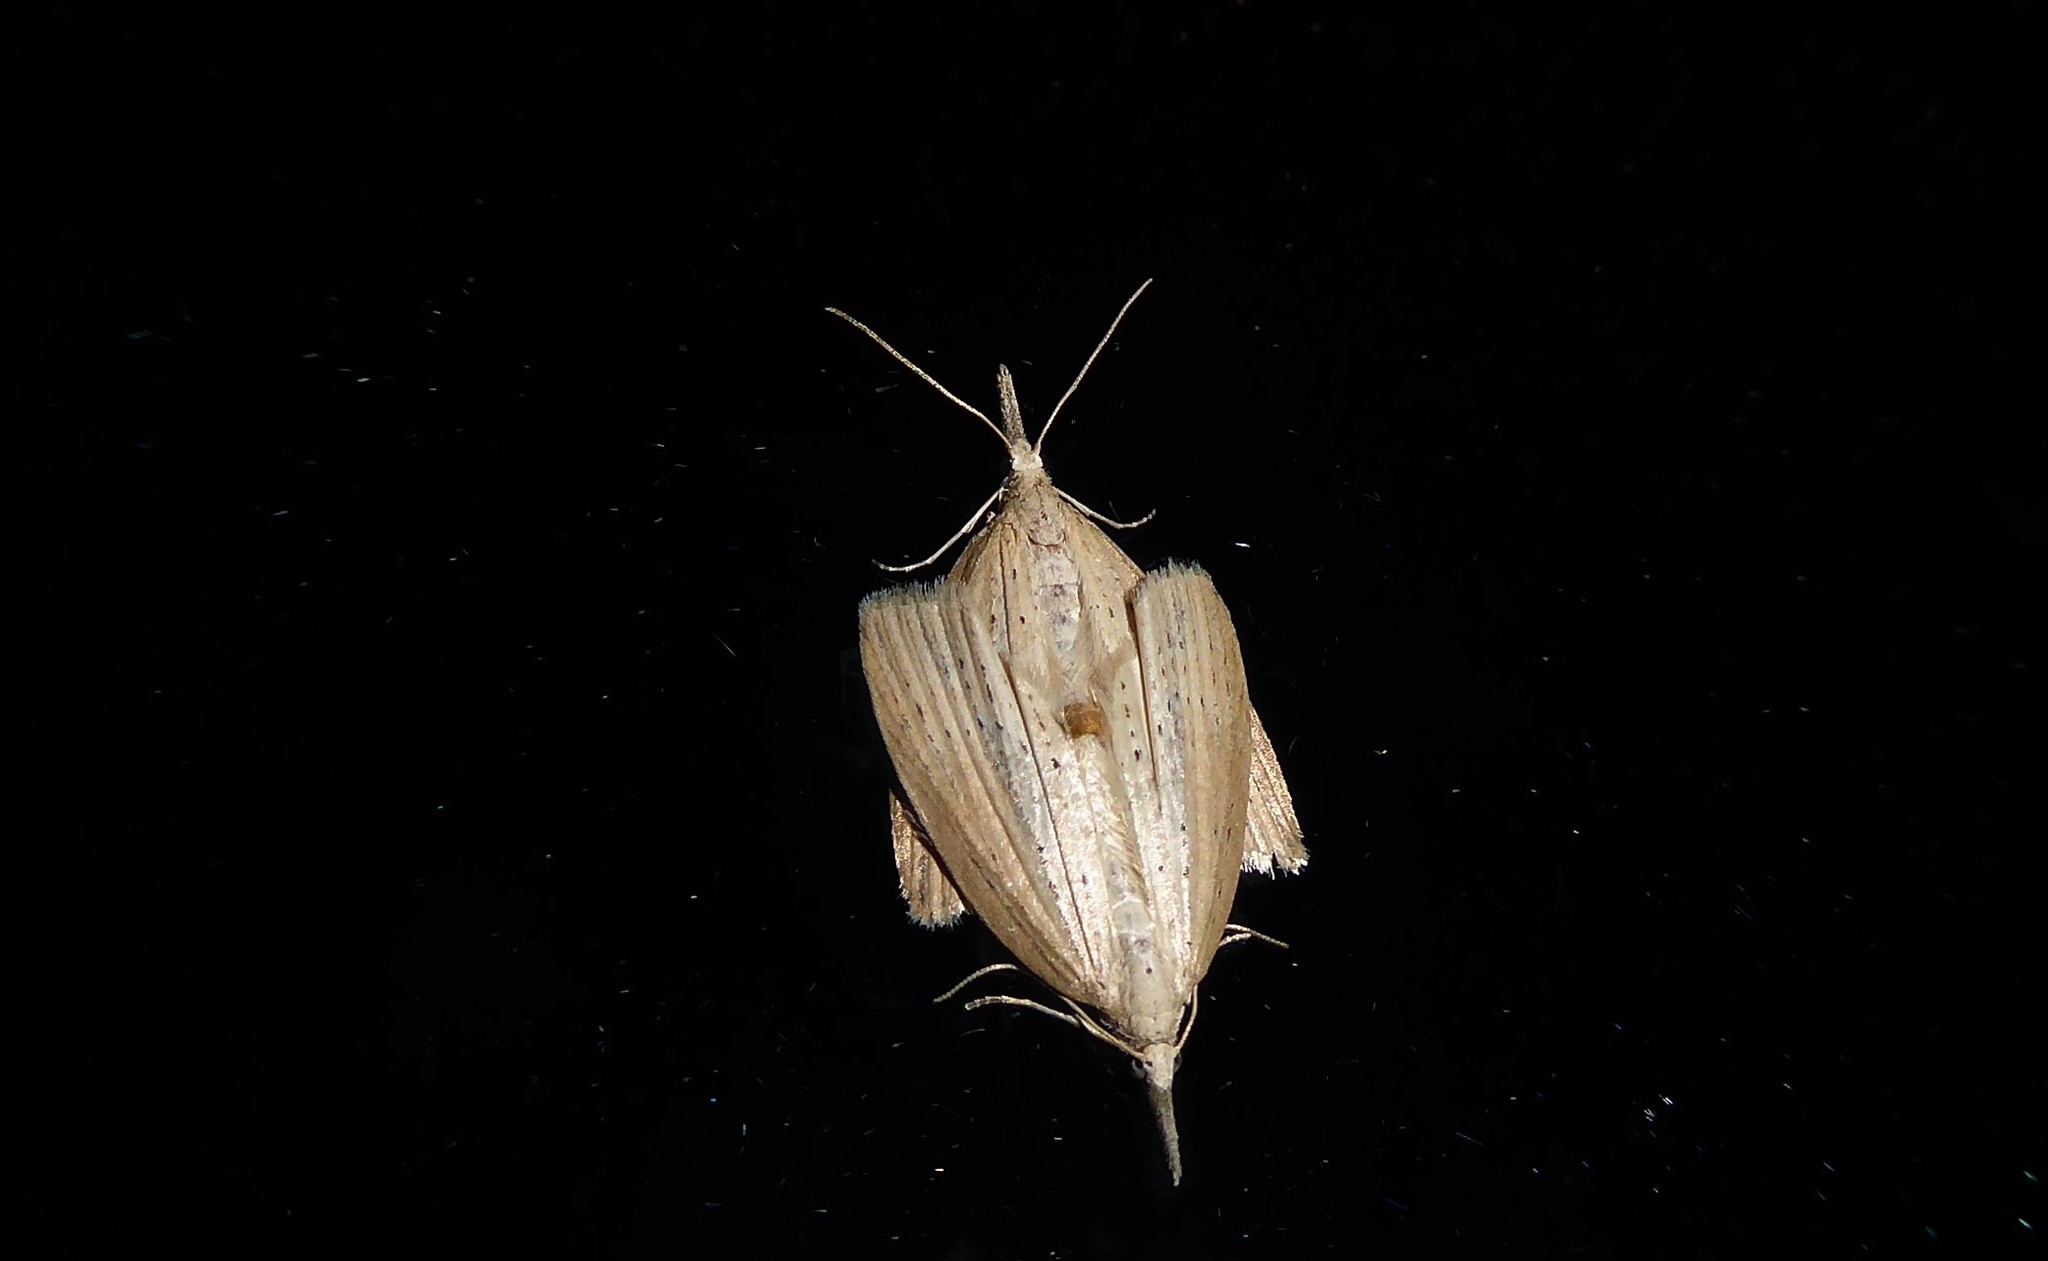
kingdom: Animalia
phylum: Arthropoda
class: Insecta
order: Lepidoptera
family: Geometridae
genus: Microdes
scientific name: Microdes epicryptis
